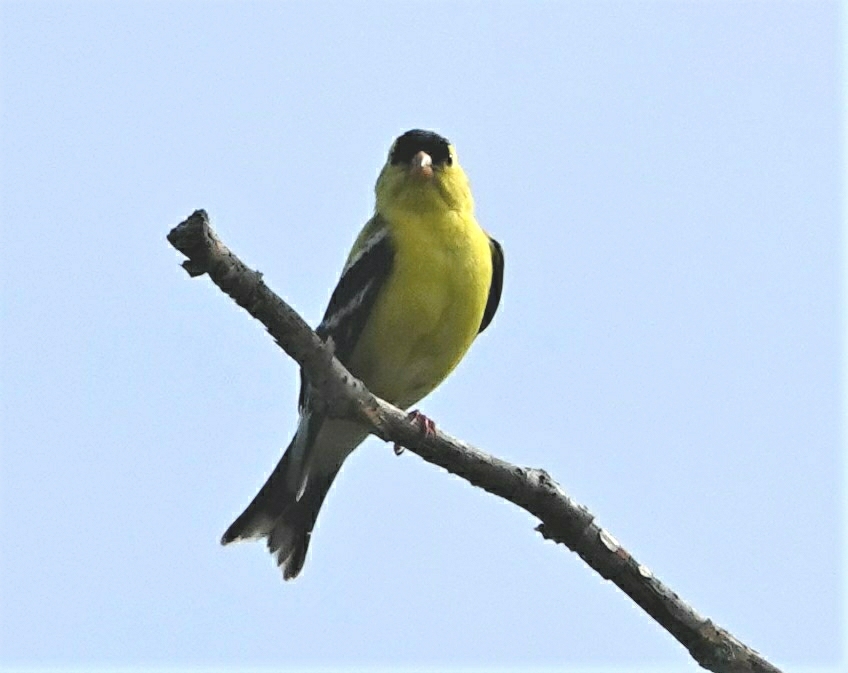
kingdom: Animalia
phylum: Chordata
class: Aves
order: Passeriformes
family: Fringillidae
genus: Spinus
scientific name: Spinus tristis
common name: American goldfinch
